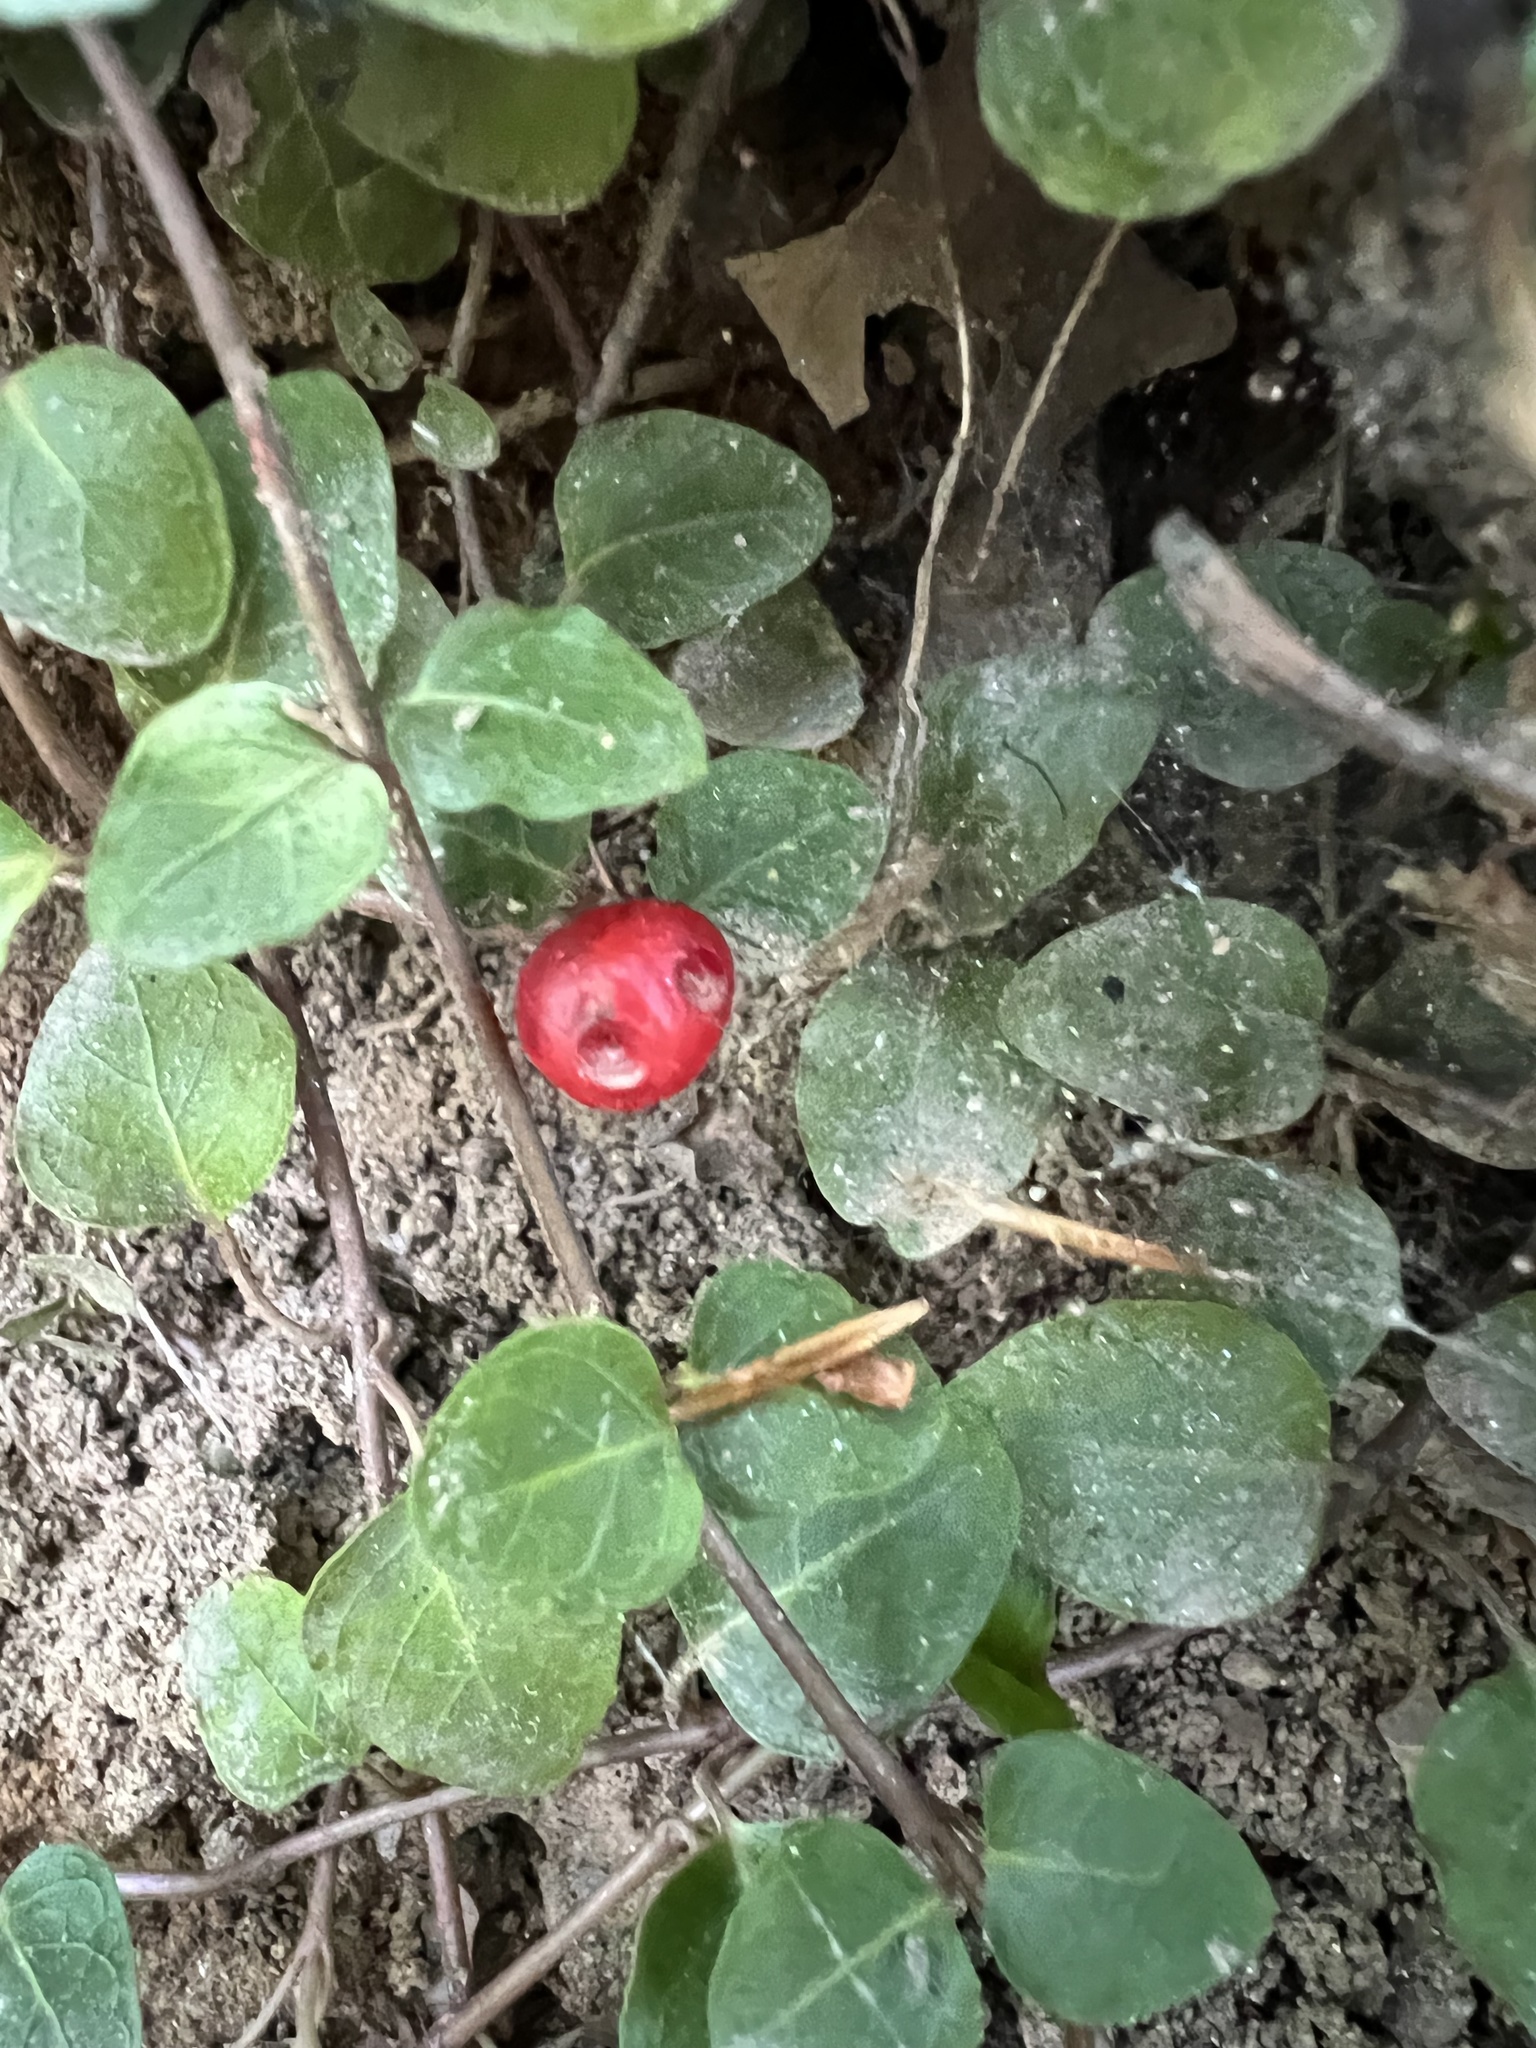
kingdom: Plantae
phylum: Tracheophyta
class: Magnoliopsida
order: Gentianales
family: Rubiaceae
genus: Mitchella
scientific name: Mitchella repens
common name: Partridge-berry
